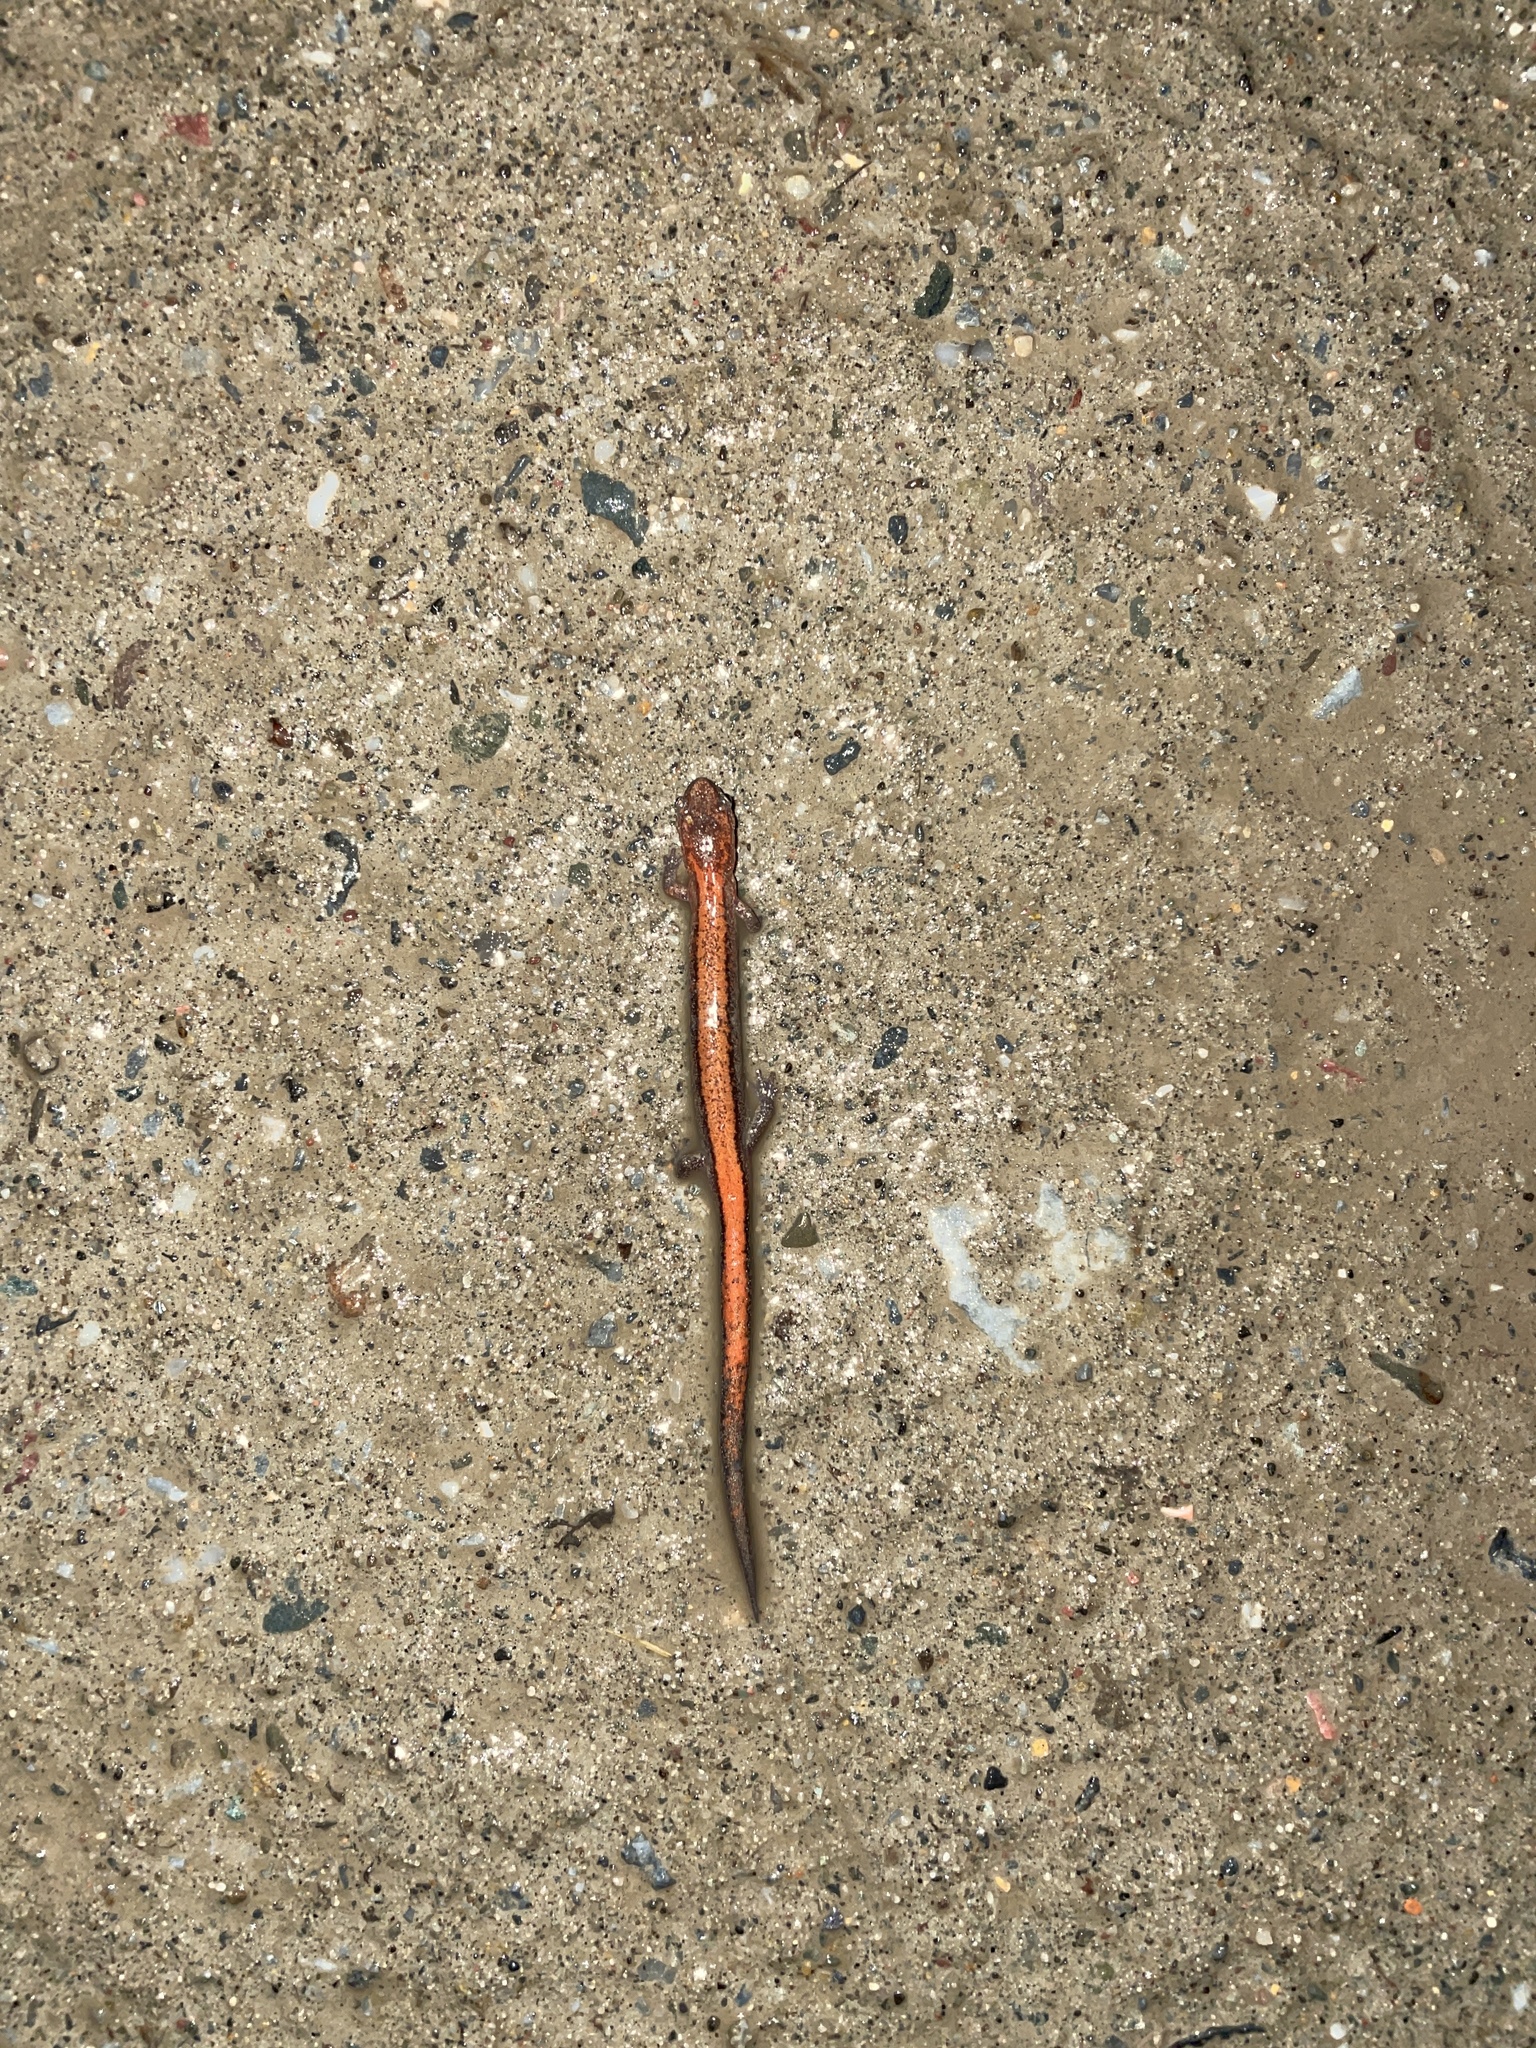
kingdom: Animalia
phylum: Chordata
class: Amphibia
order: Caudata
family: Plethodontidae
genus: Plethodon
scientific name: Plethodon cinereus
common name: Redback salamander
